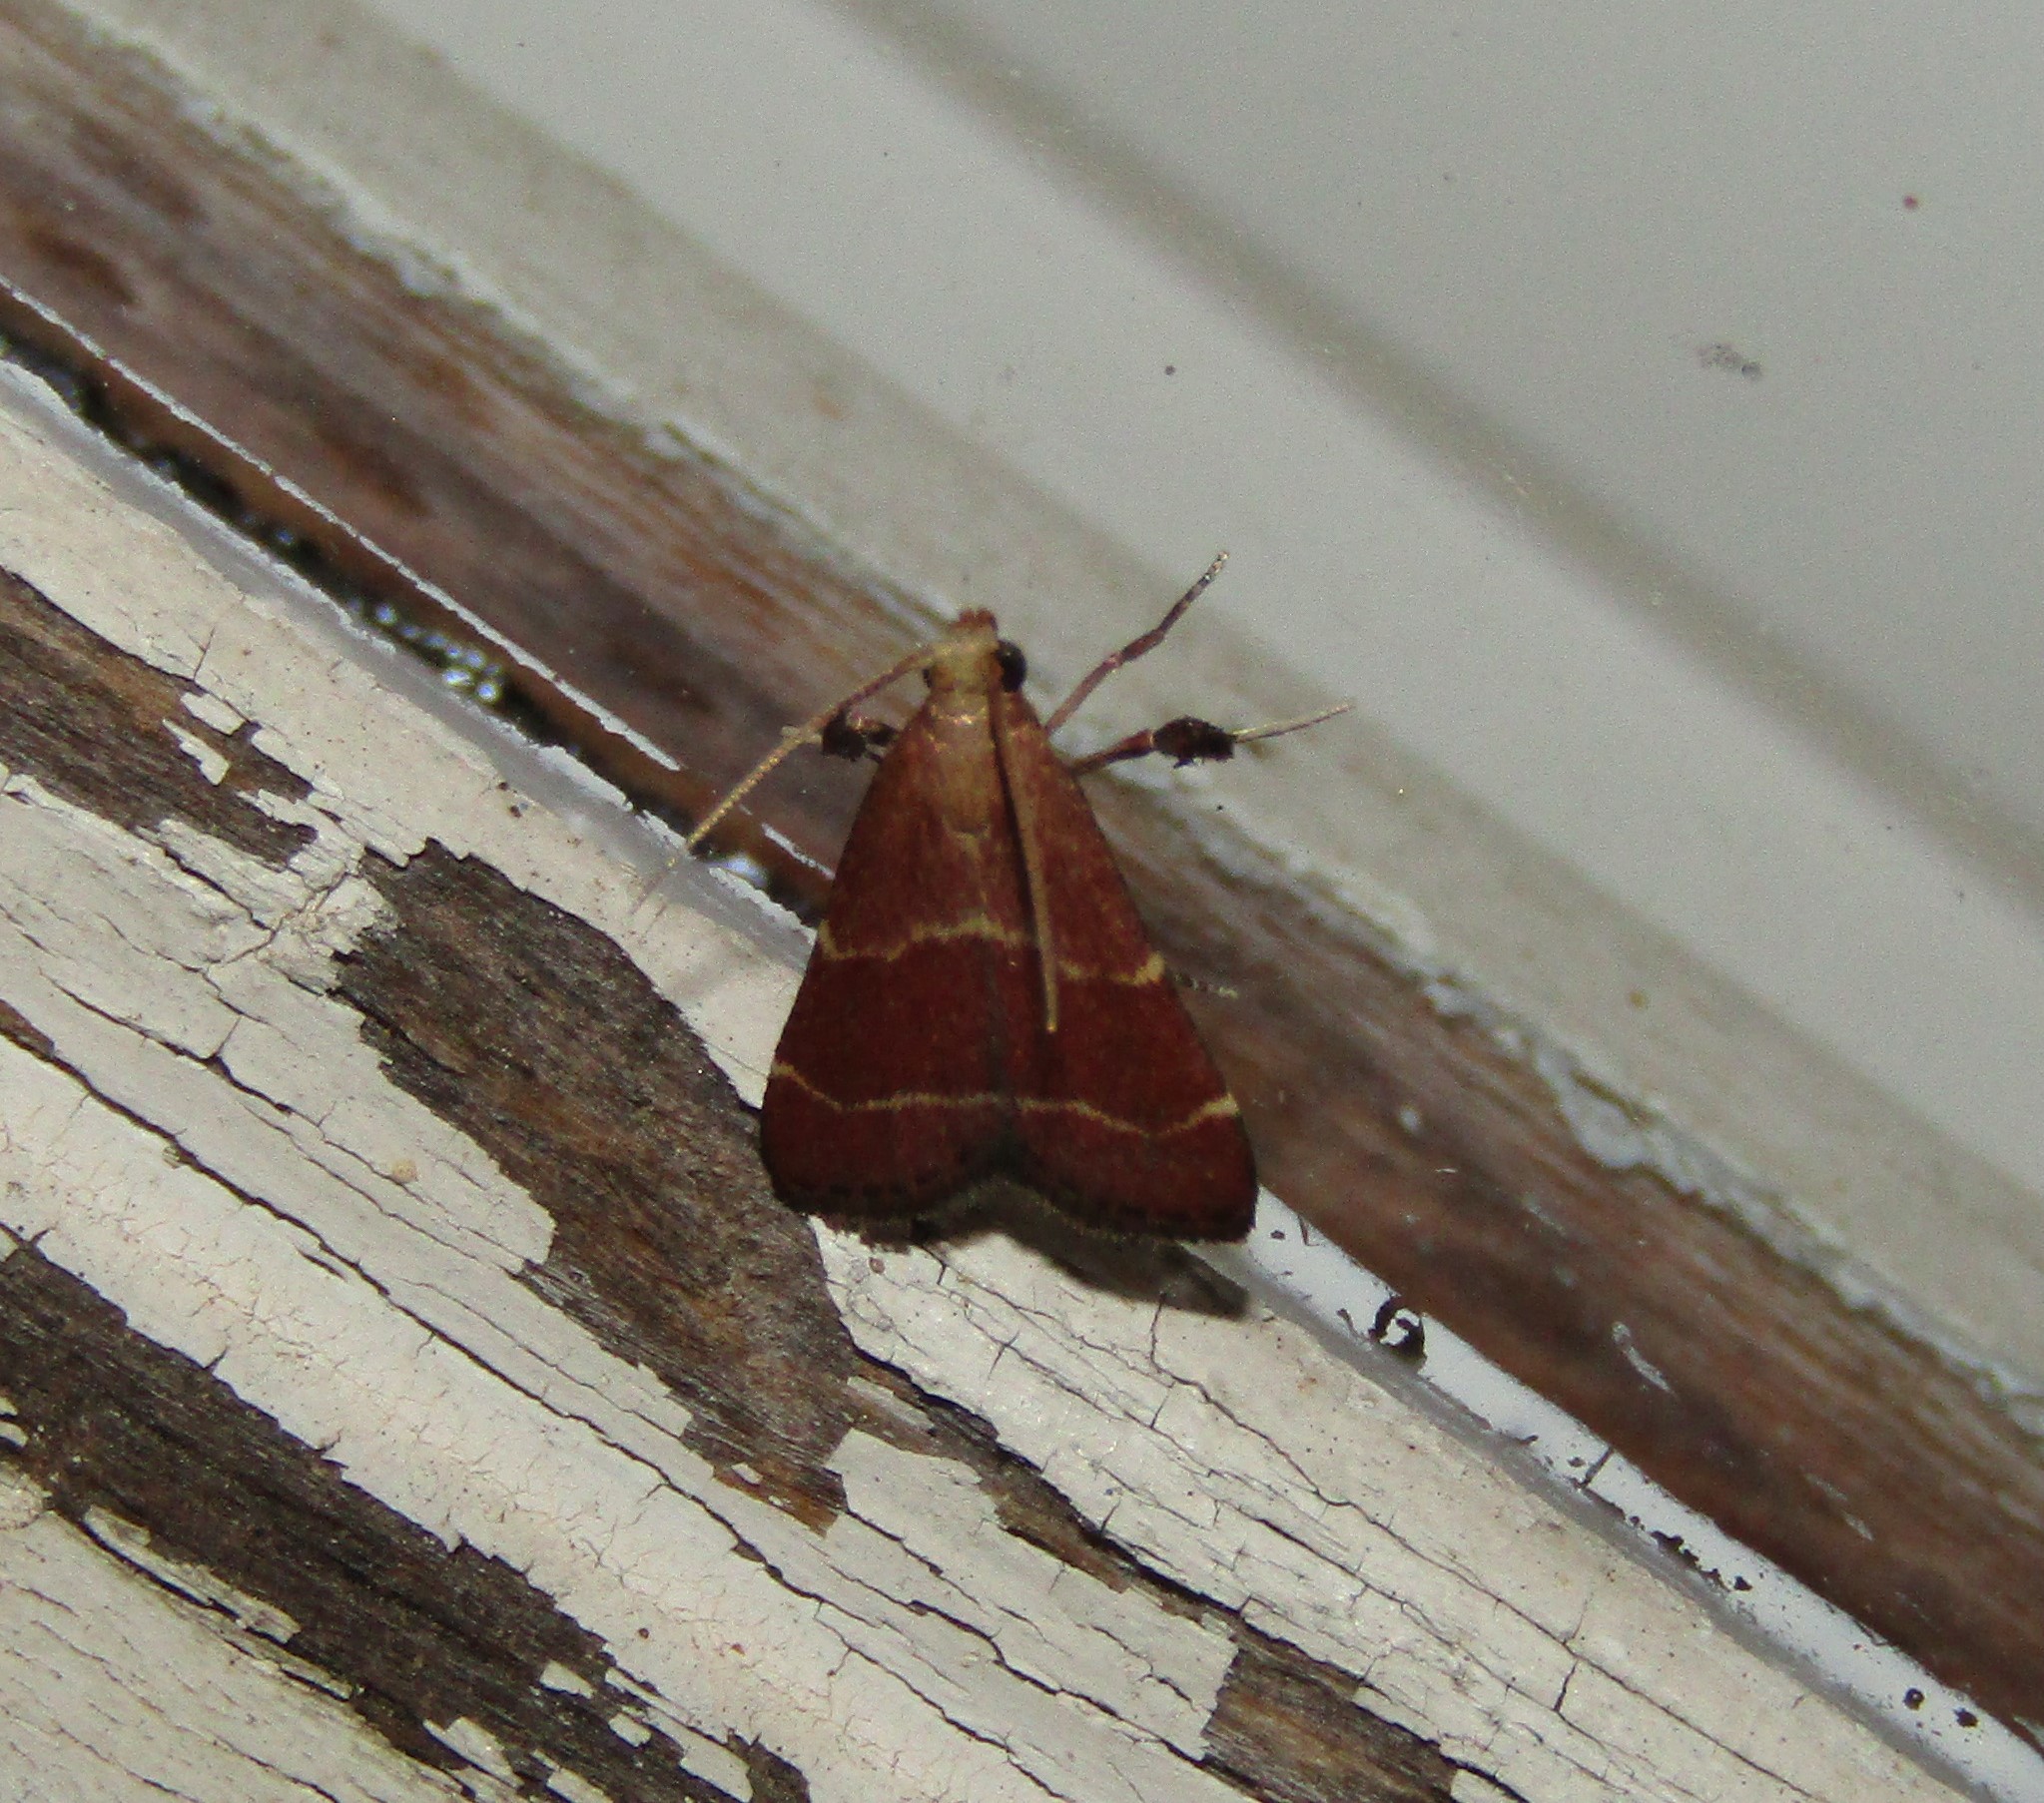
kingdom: Animalia
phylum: Arthropoda
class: Insecta
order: Lepidoptera
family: Pyralidae
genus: Arta
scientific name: Arta statalis
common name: Posturing arta moth
